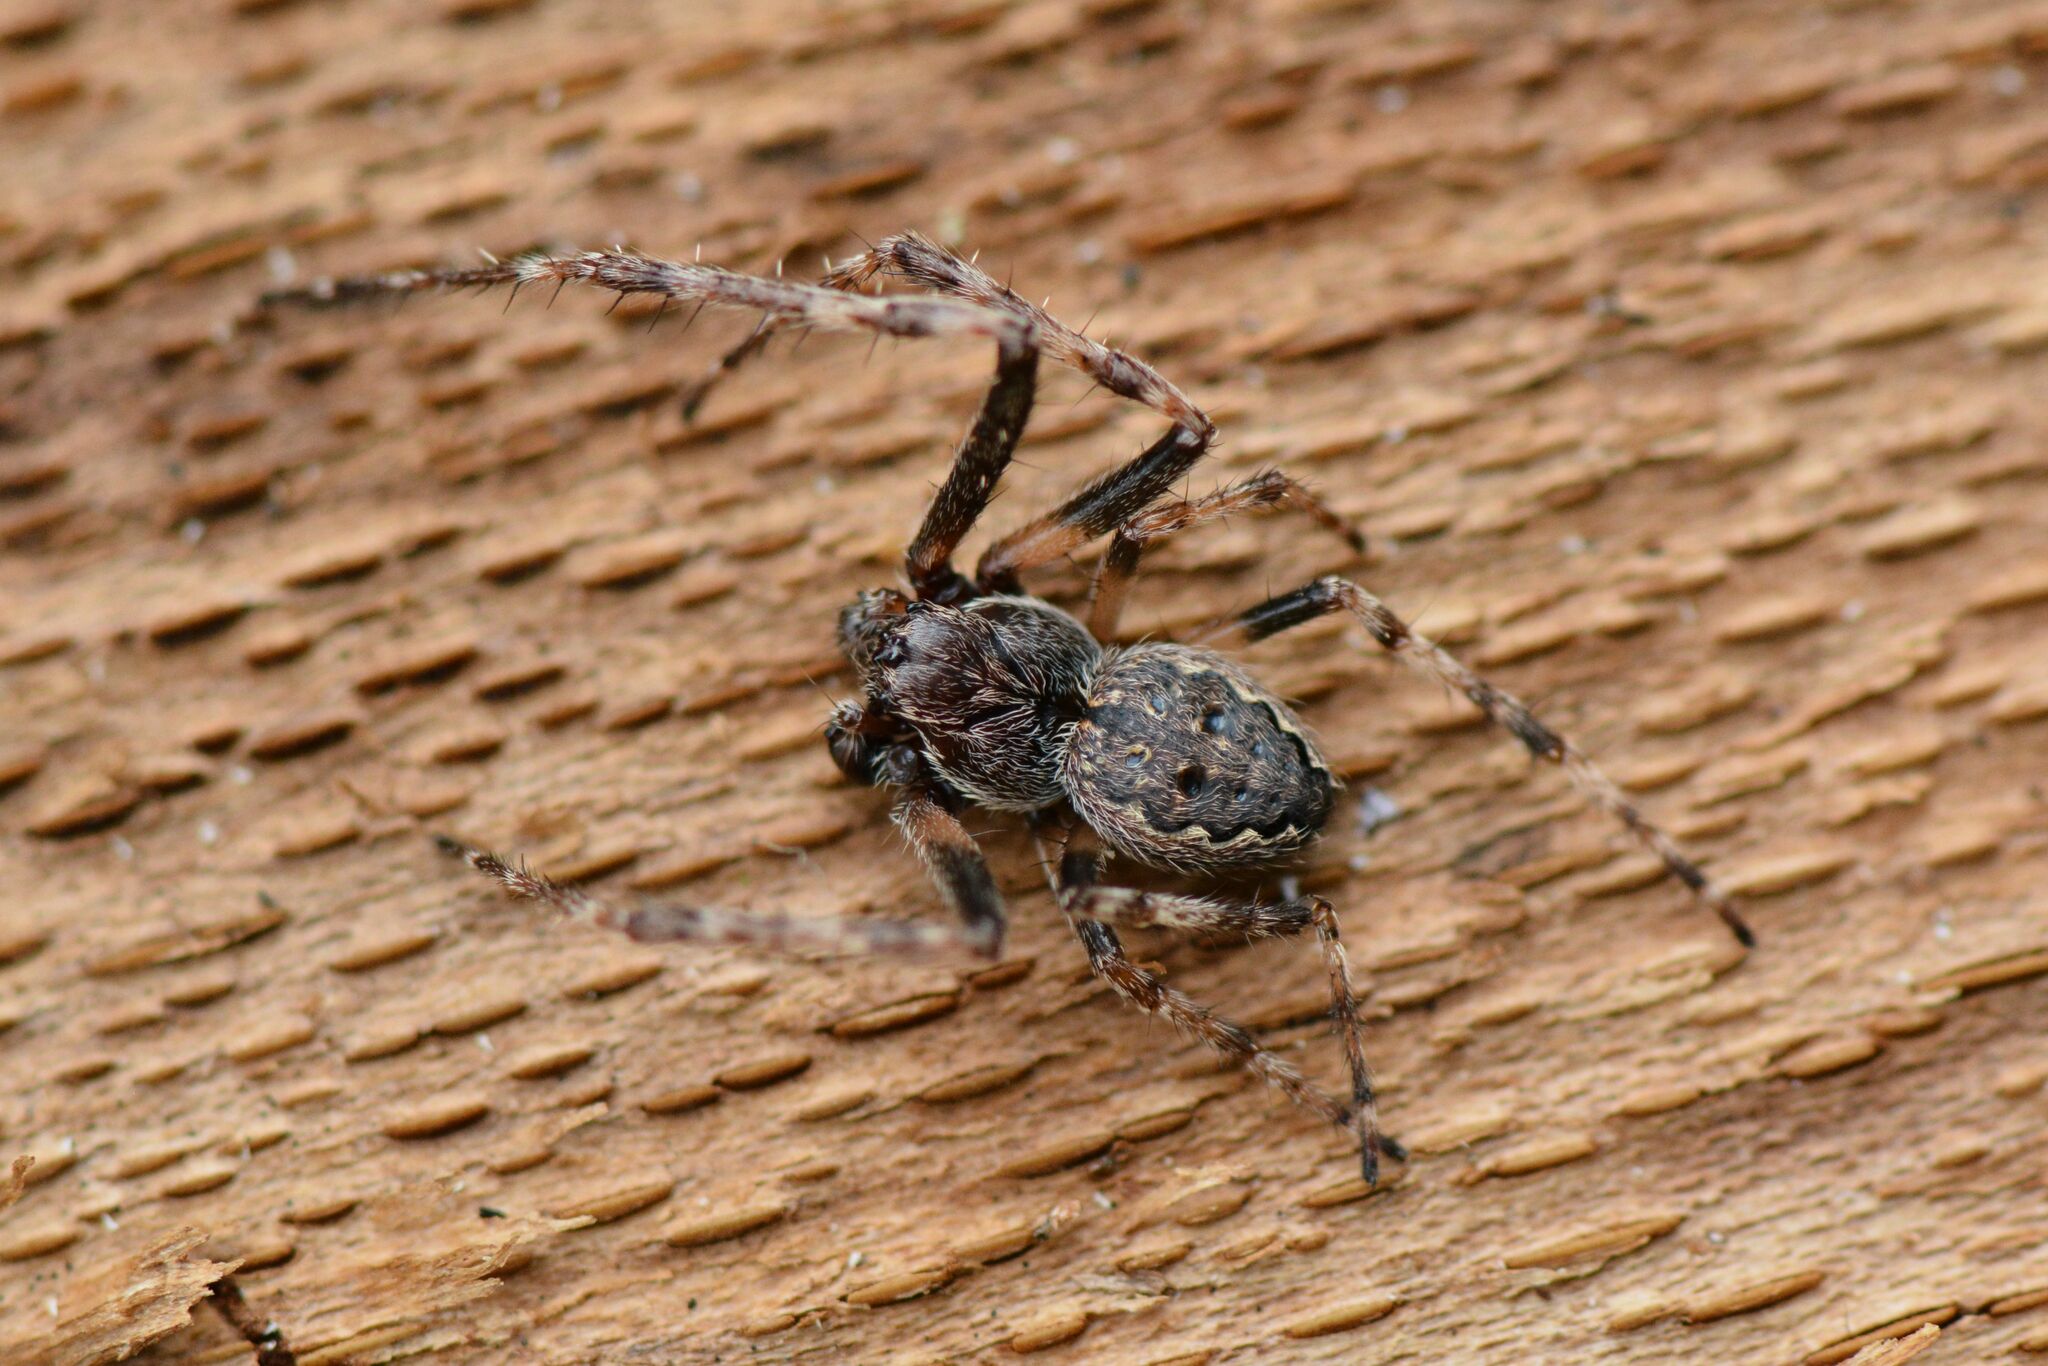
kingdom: Animalia
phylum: Arthropoda
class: Arachnida
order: Araneae
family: Araneidae
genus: Nuctenea
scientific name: Nuctenea umbratica
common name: Toad spider
